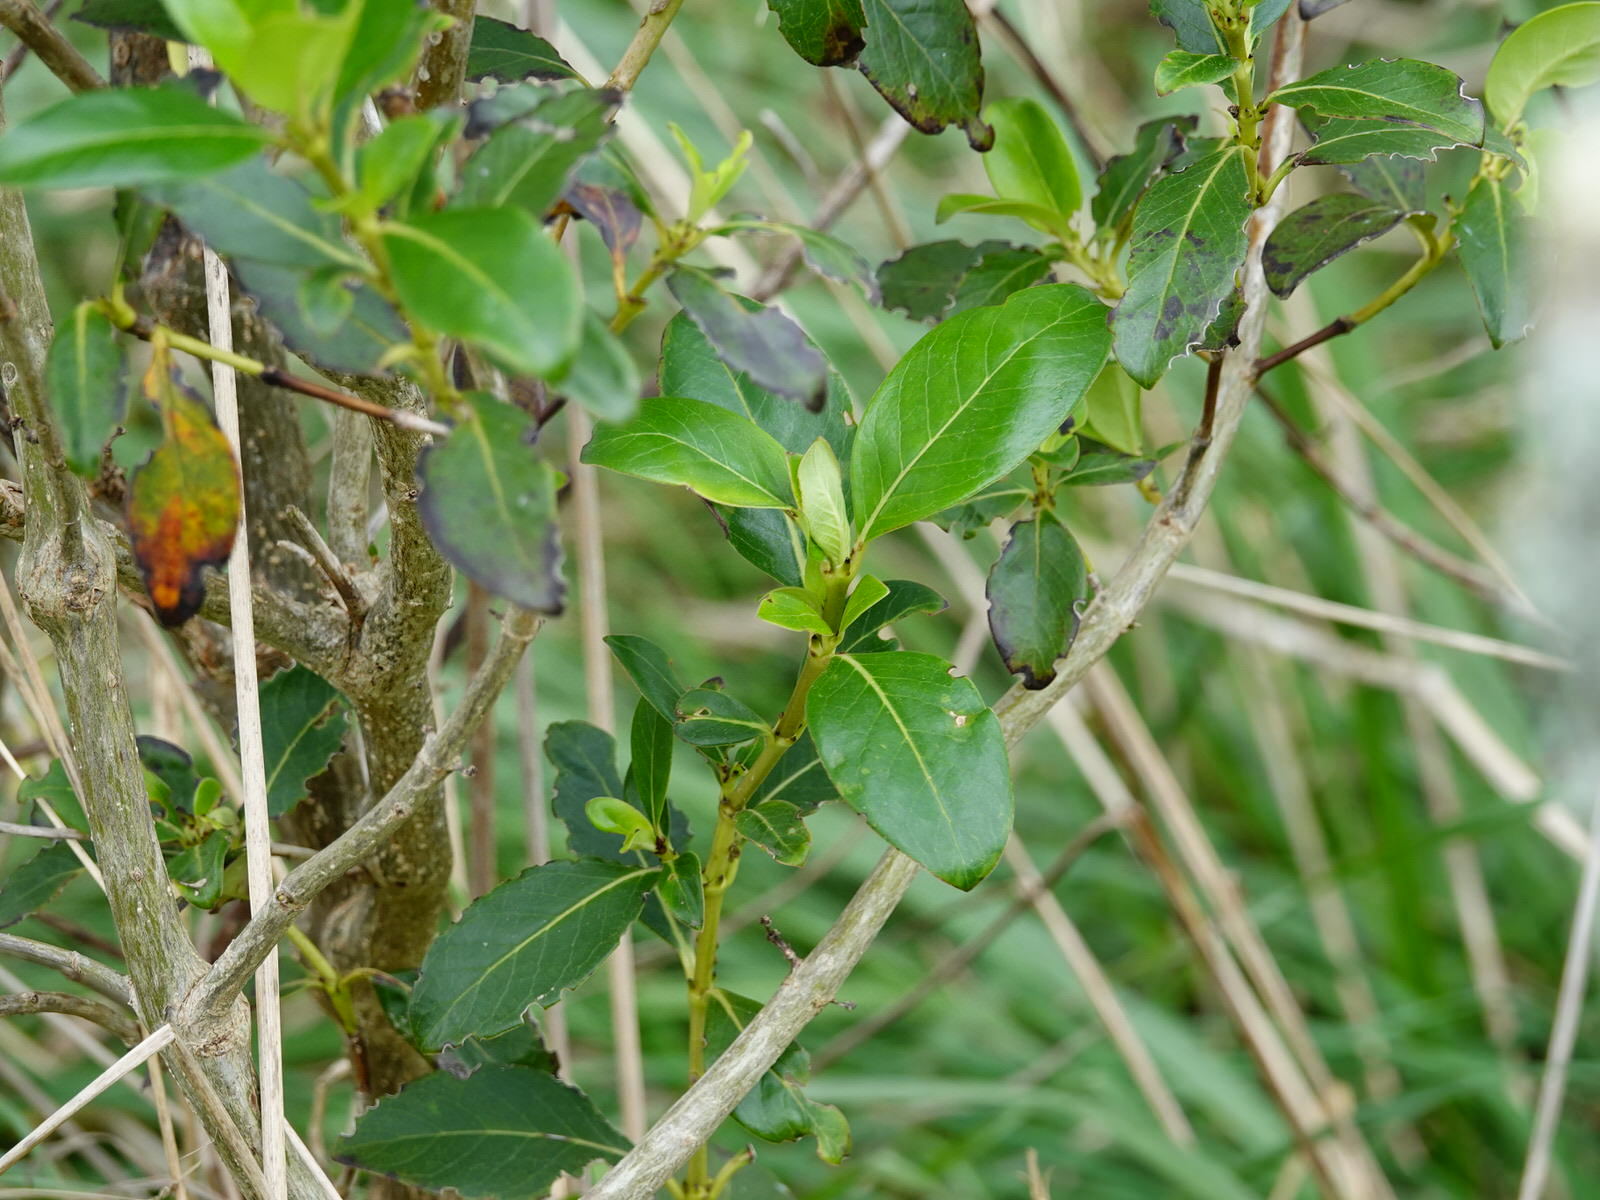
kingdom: Plantae
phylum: Tracheophyta
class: Magnoliopsida
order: Gentianales
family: Rubiaceae
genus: Coprosma
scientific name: Coprosma robusta
